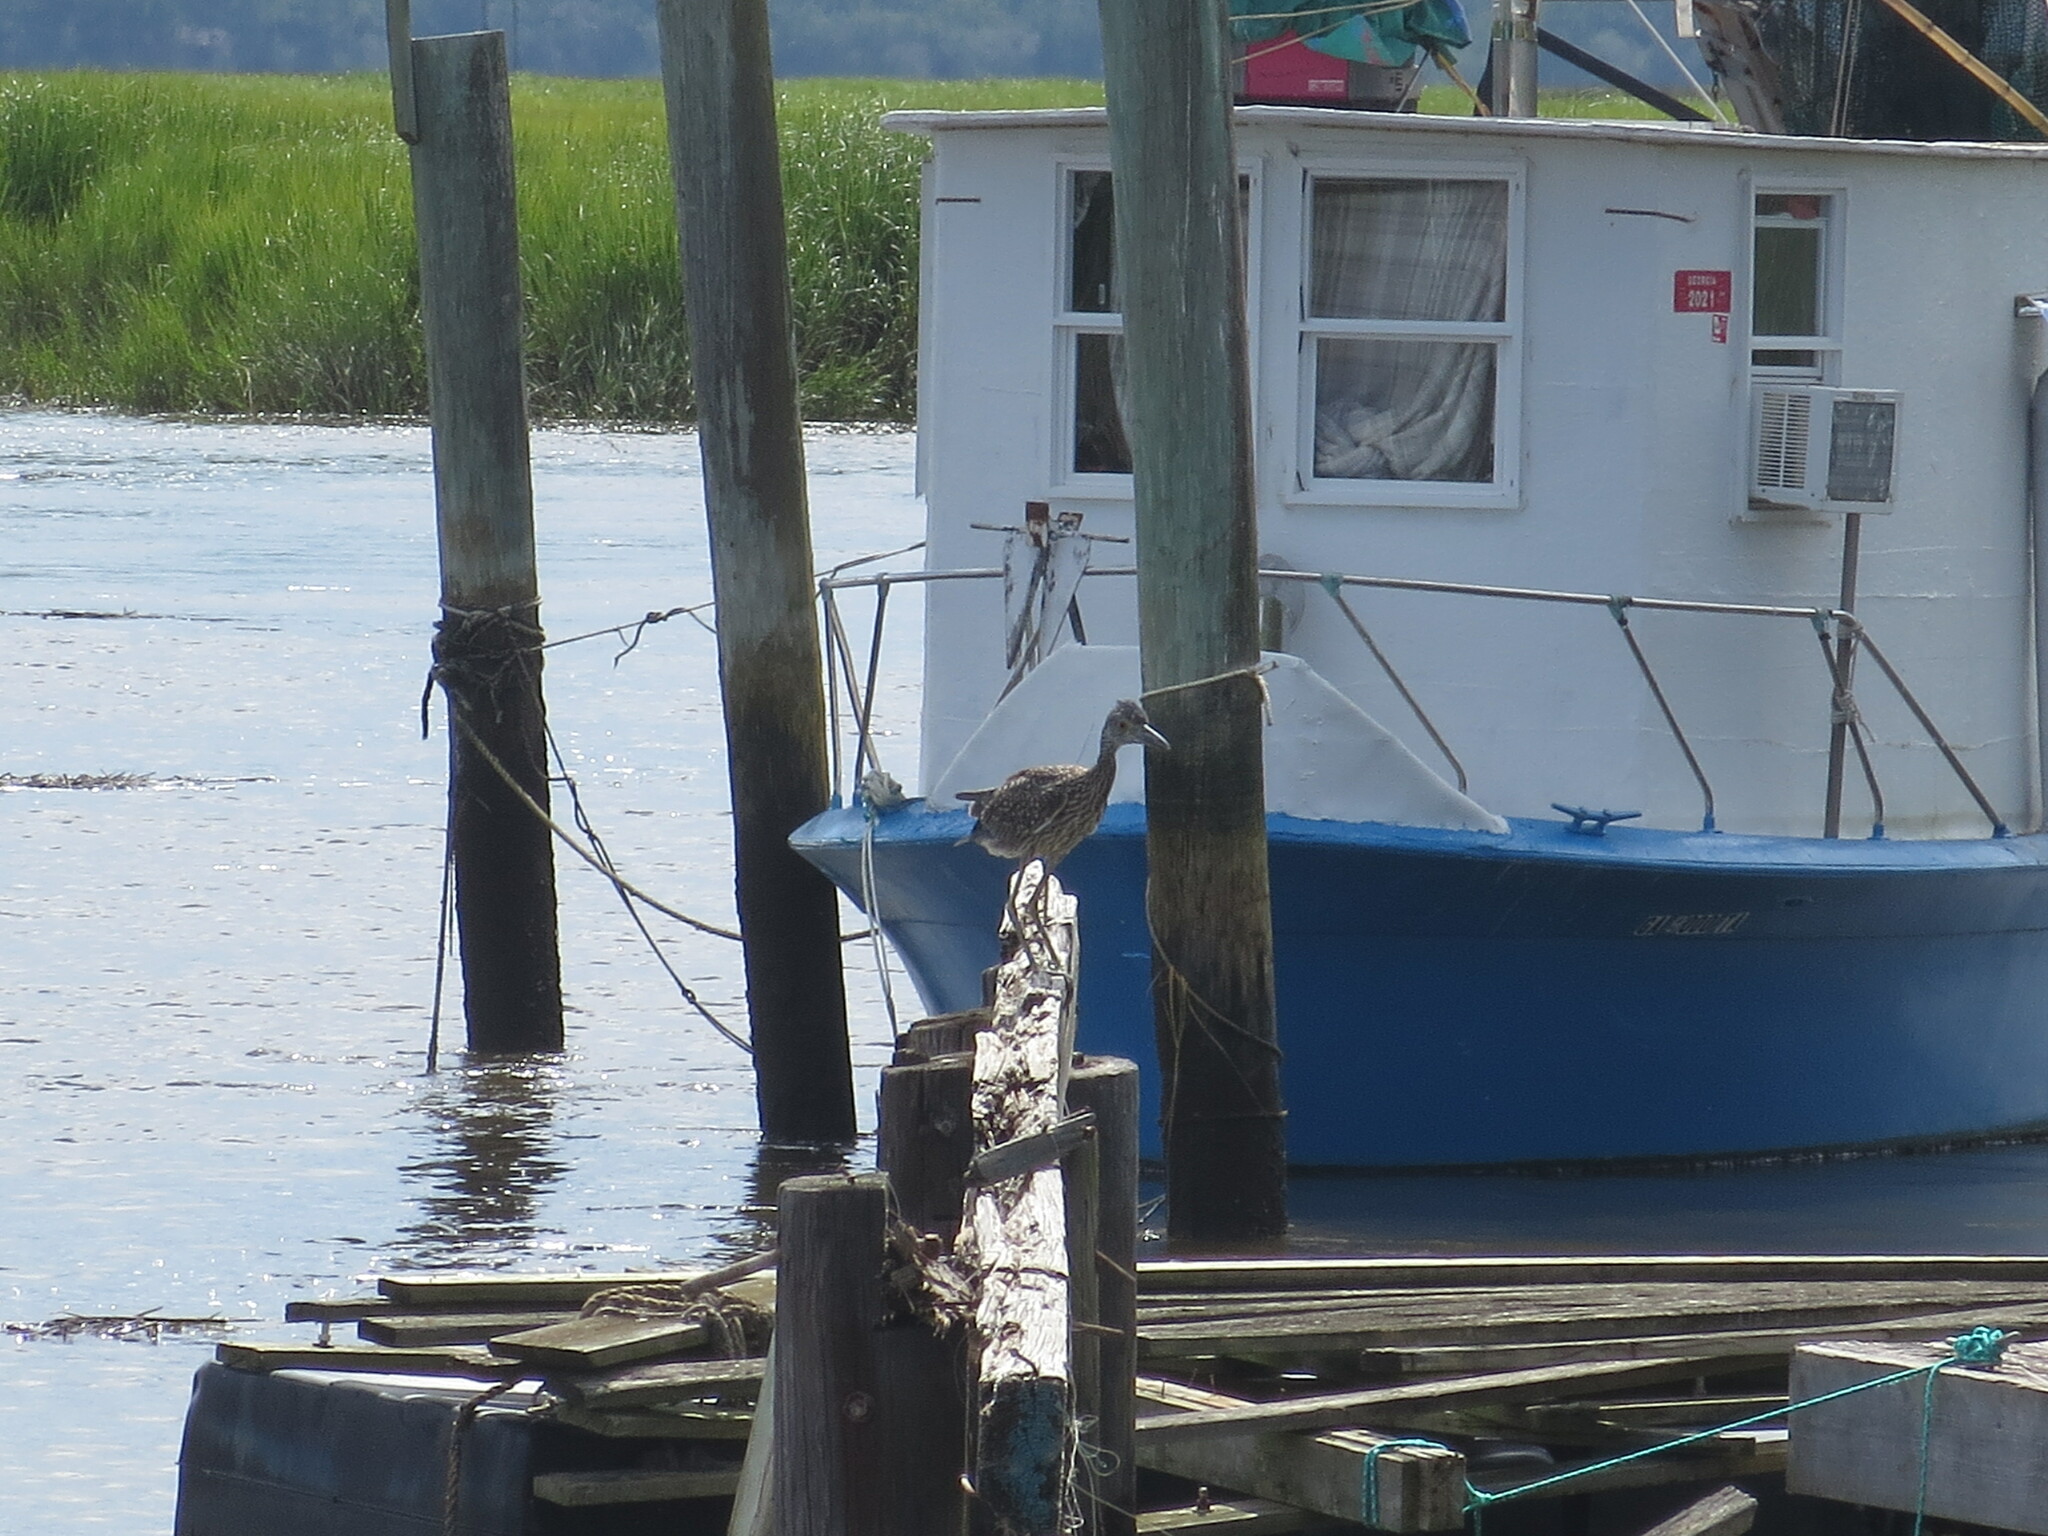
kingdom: Animalia
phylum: Chordata
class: Aves
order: Pelecaniformes
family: Ardeidae
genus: Nyctanassa
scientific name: Nyctanassa violacea
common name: Yellow-crowned night heron
